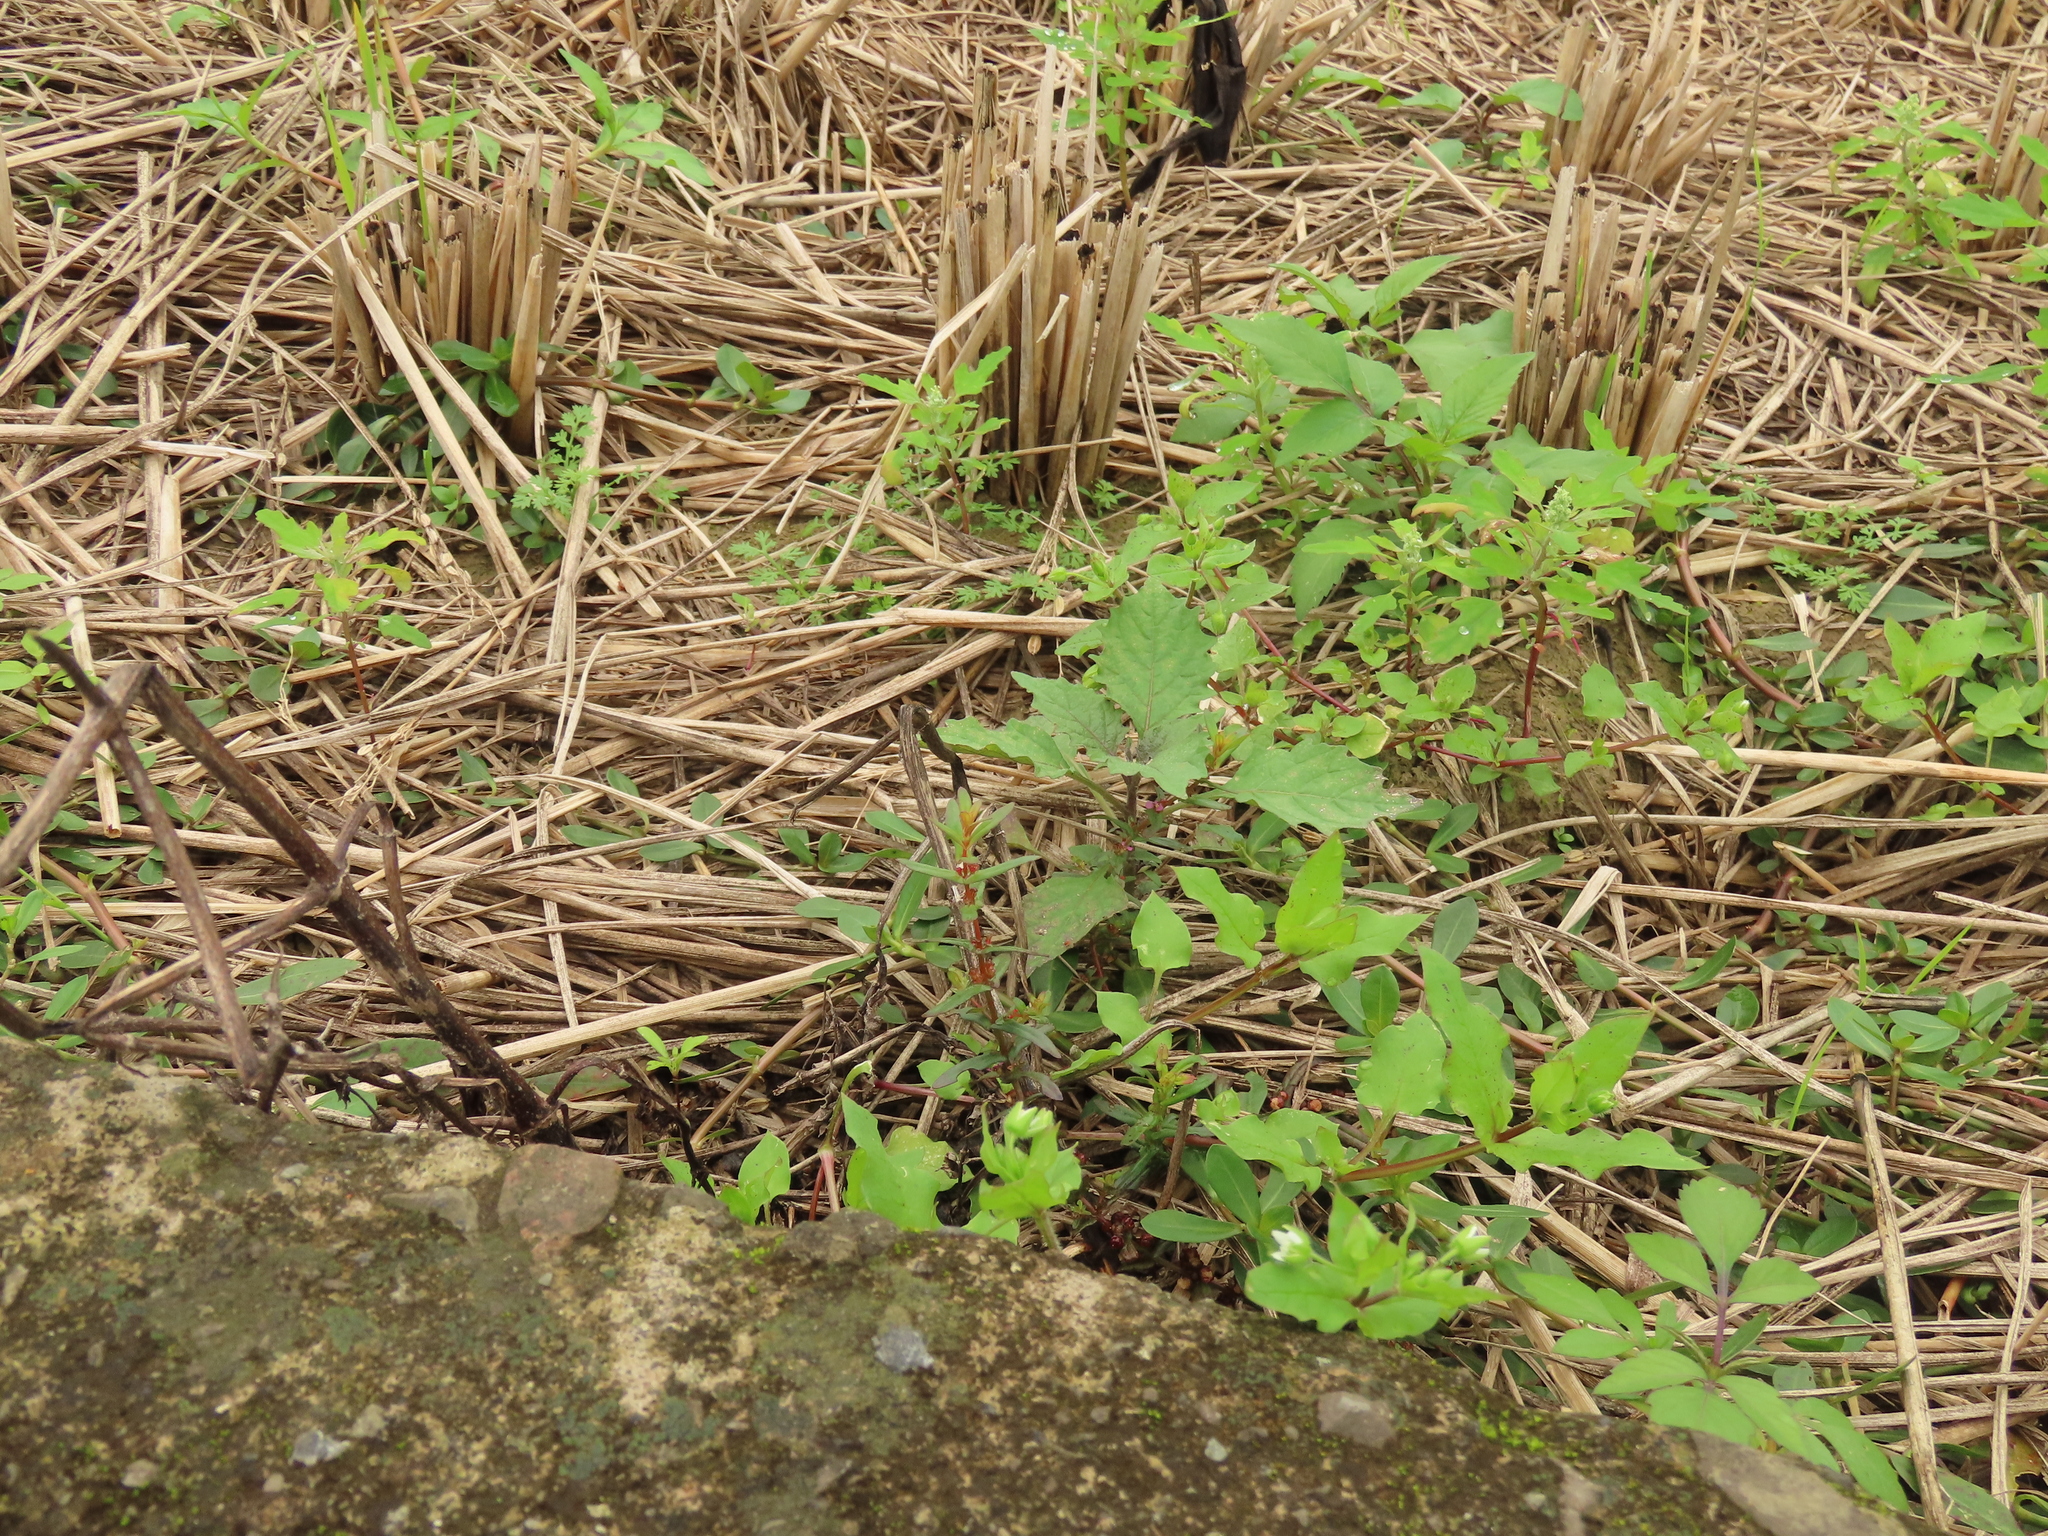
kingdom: Plantae
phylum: Tracheophyta
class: Magnoliopsida
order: Myrtales
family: Lythraceae
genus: Ammannia
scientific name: Ammannia auriculata
